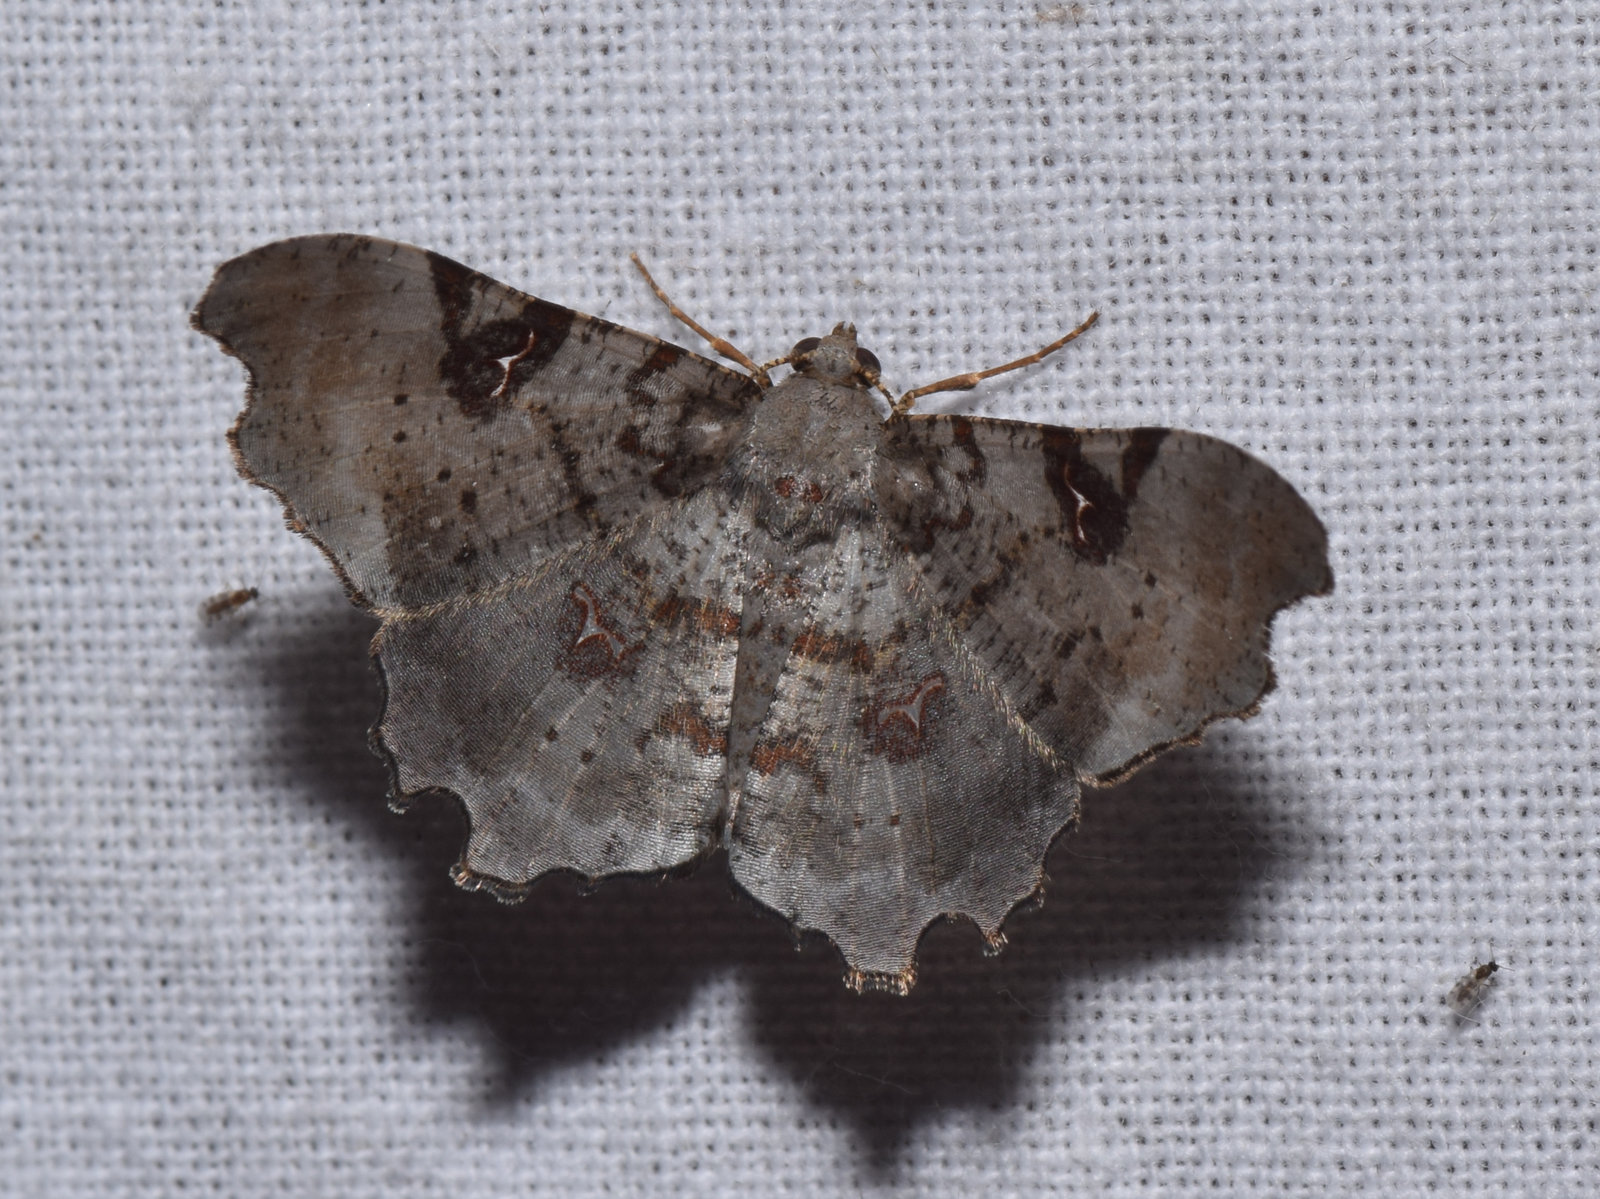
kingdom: Animalia
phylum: Arthropoda
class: Insecta
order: Lepidoptera
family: Geometridae
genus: Hyalinetta
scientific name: Hyalinetta circumflexa
